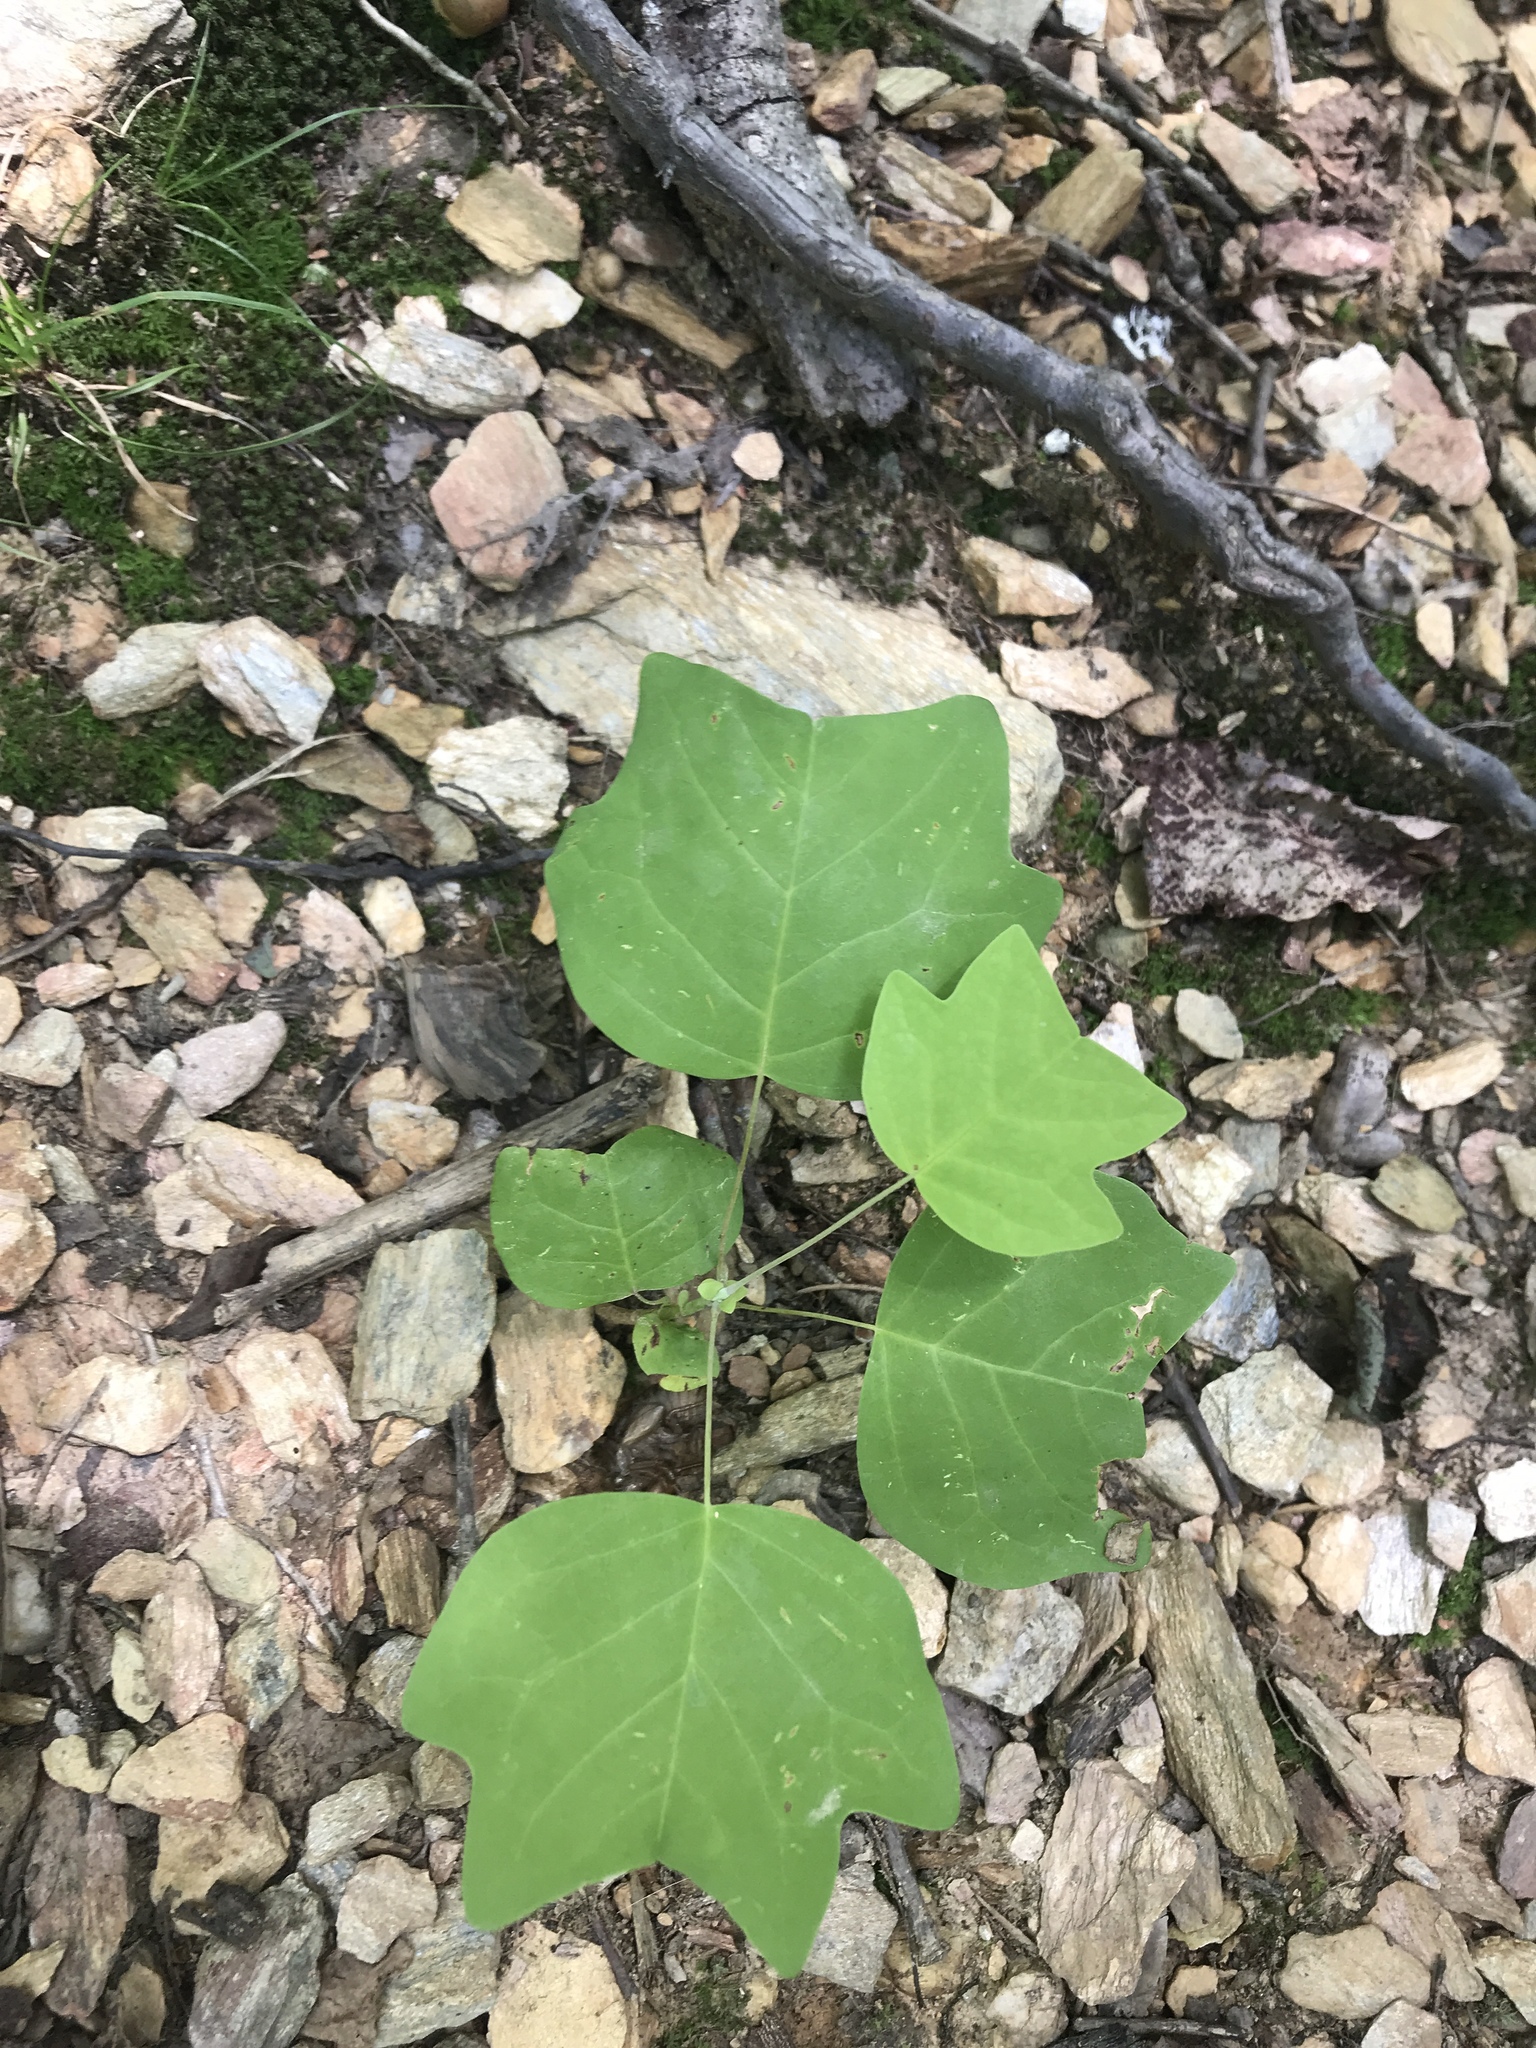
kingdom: Plantae
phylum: Tracheophyta
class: Magnoliopsida
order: Magnoliales
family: Magnoliaceae
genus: Liriodendron
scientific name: Liriodendron tulipifera
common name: Tulip tree
